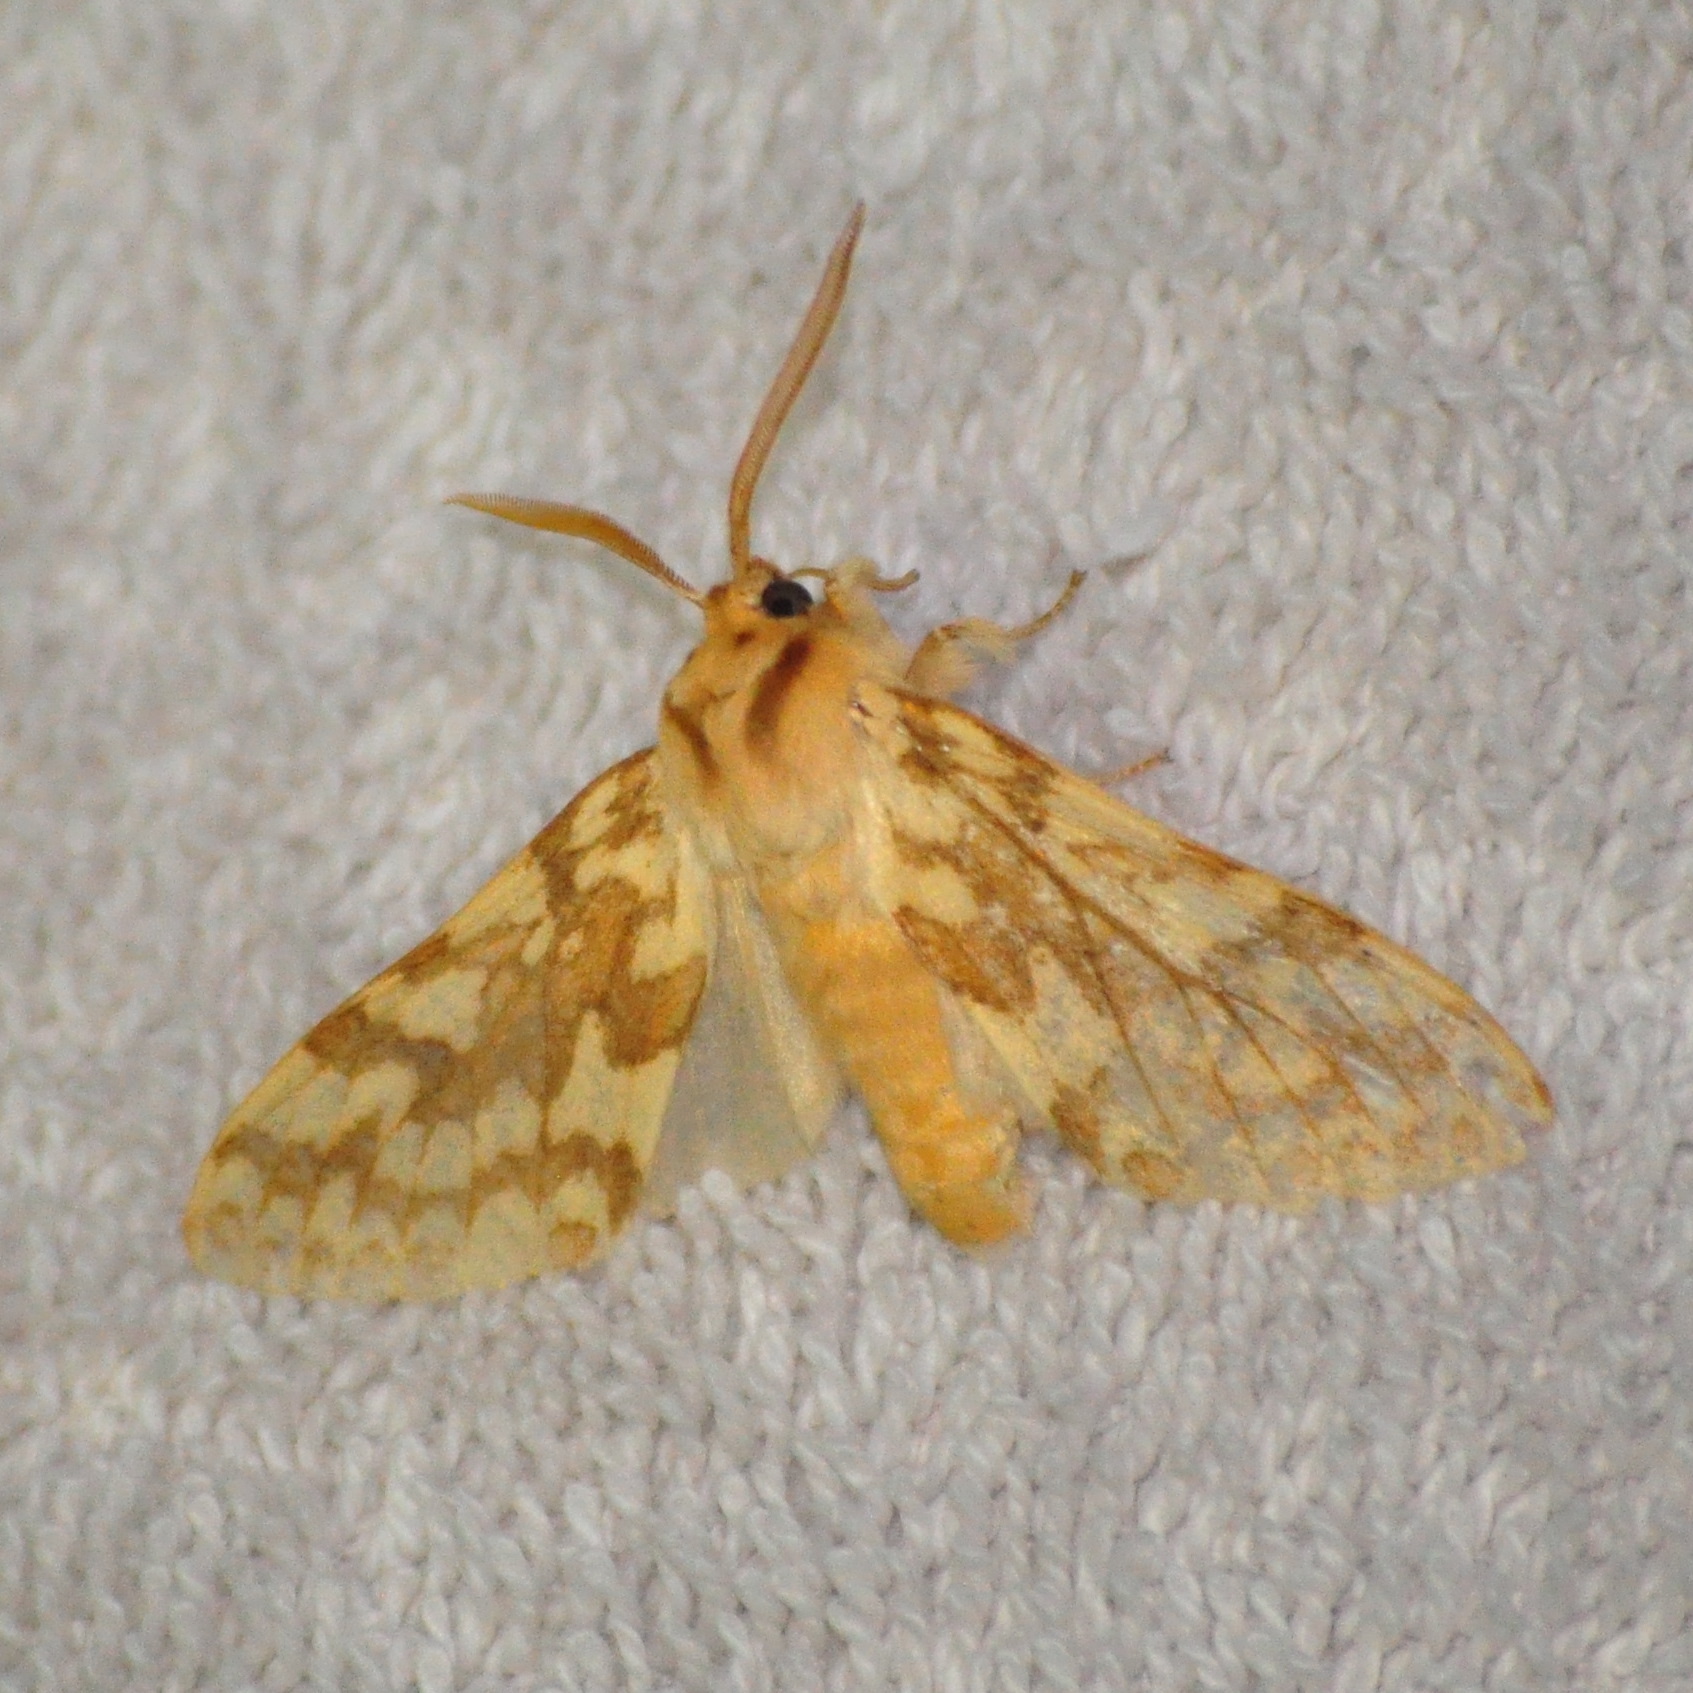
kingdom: Animalia
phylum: Arthropoda
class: Insecta
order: Lepidoptera
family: Erebidae
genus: Lophocampa
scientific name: Lophocampa maculata
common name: Spotted tussock moth
